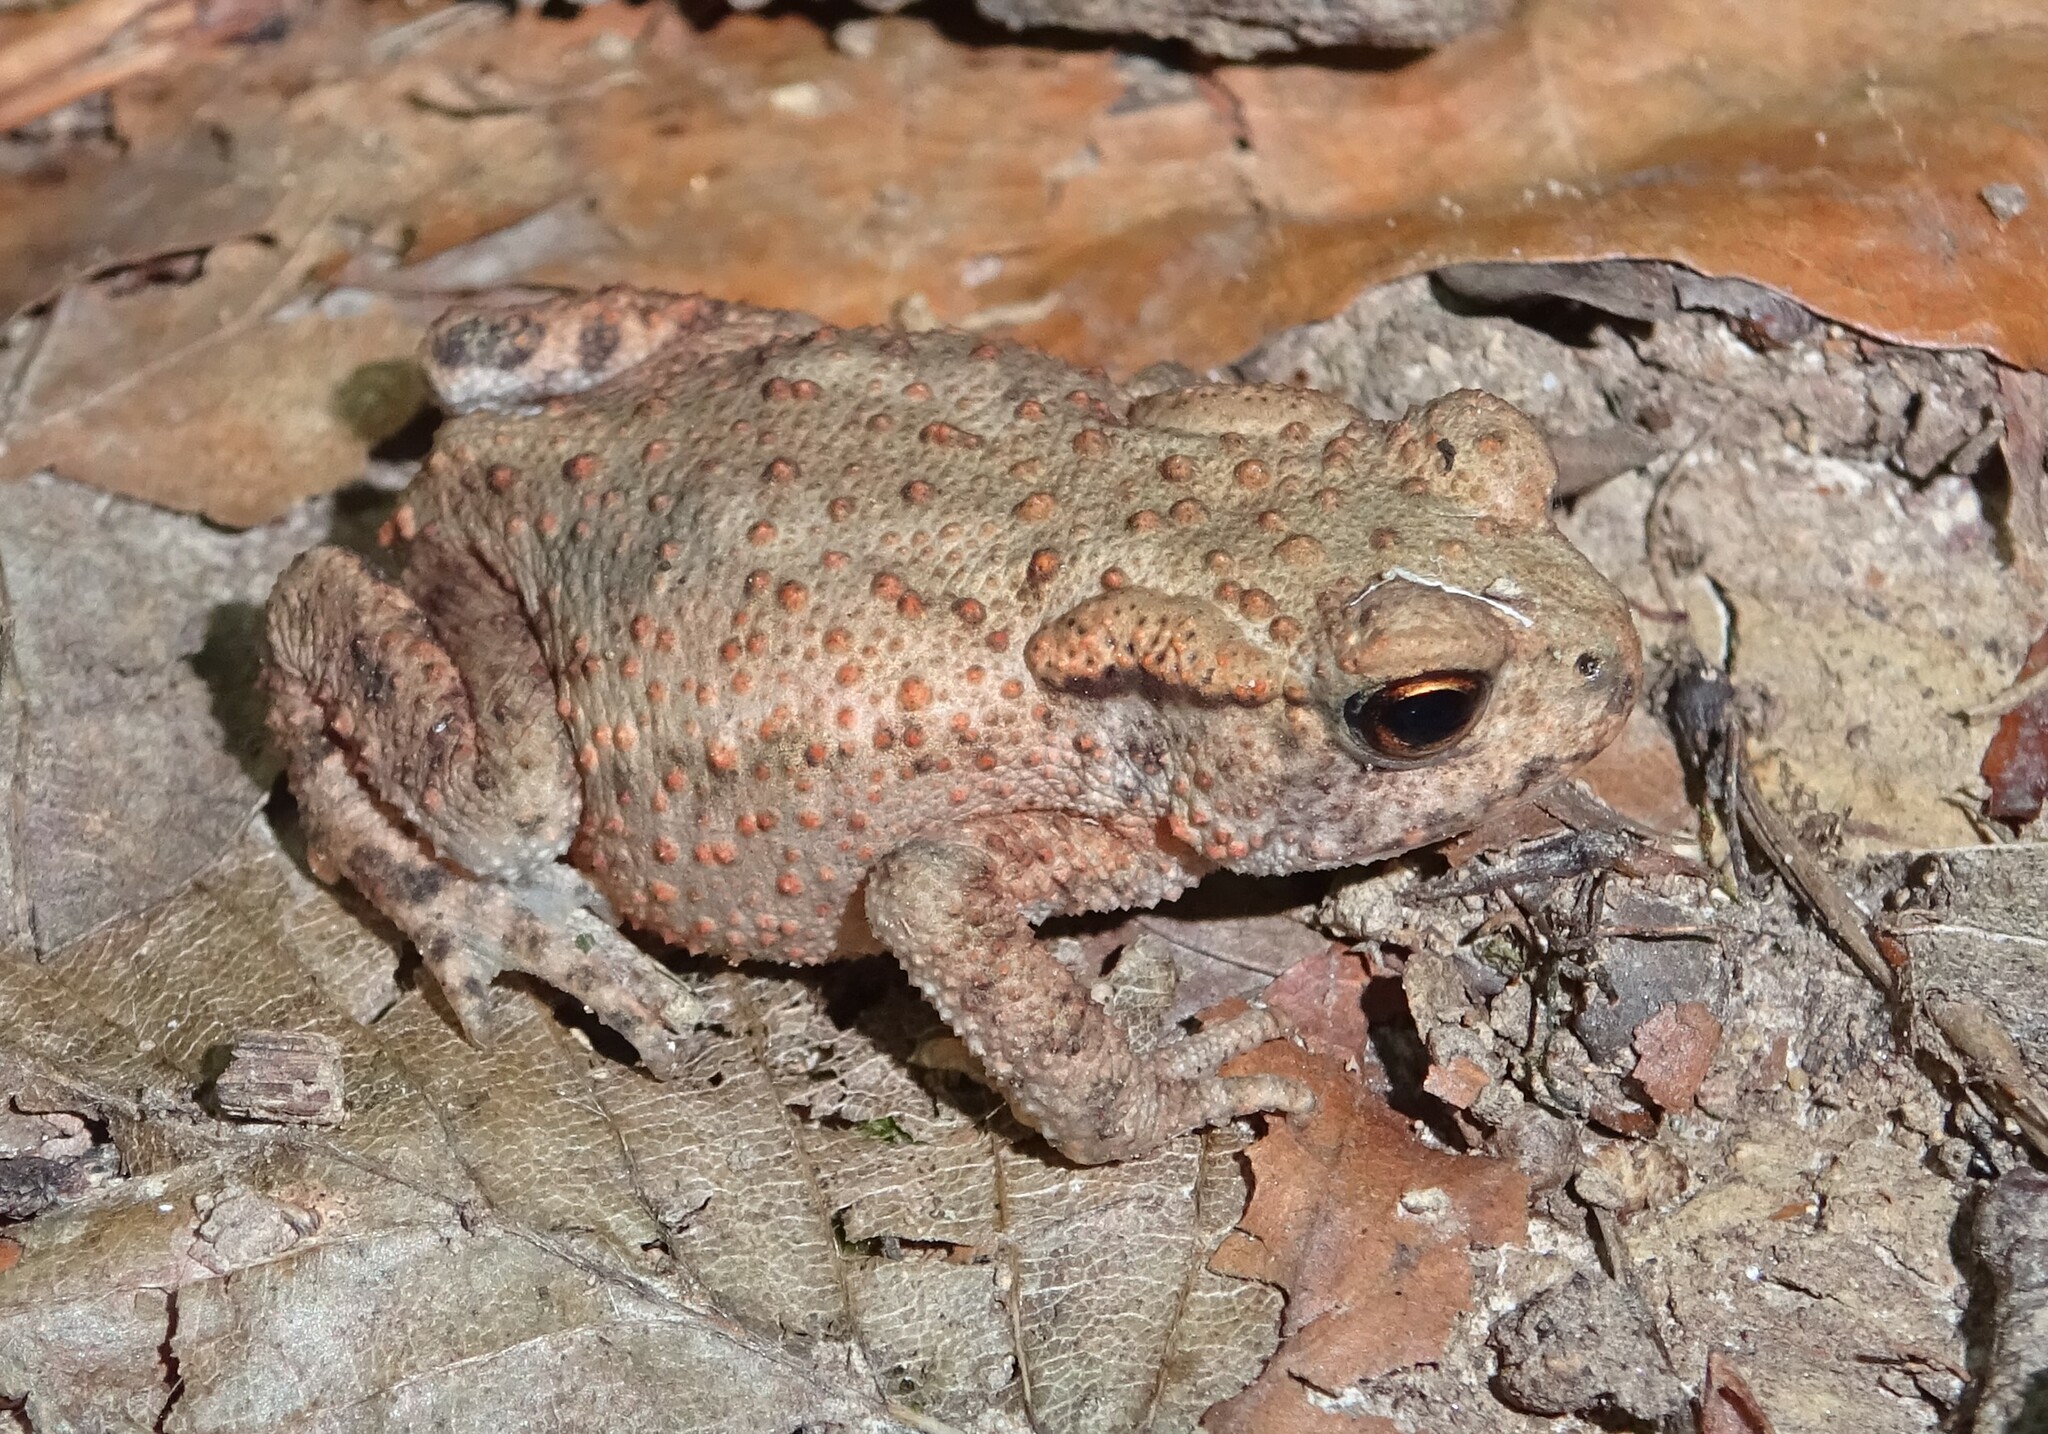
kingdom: Animalia
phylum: Chordata
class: Amphibia
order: Anura
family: Bufonidae
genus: Bufo
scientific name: Bufo bufo
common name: Common toad
